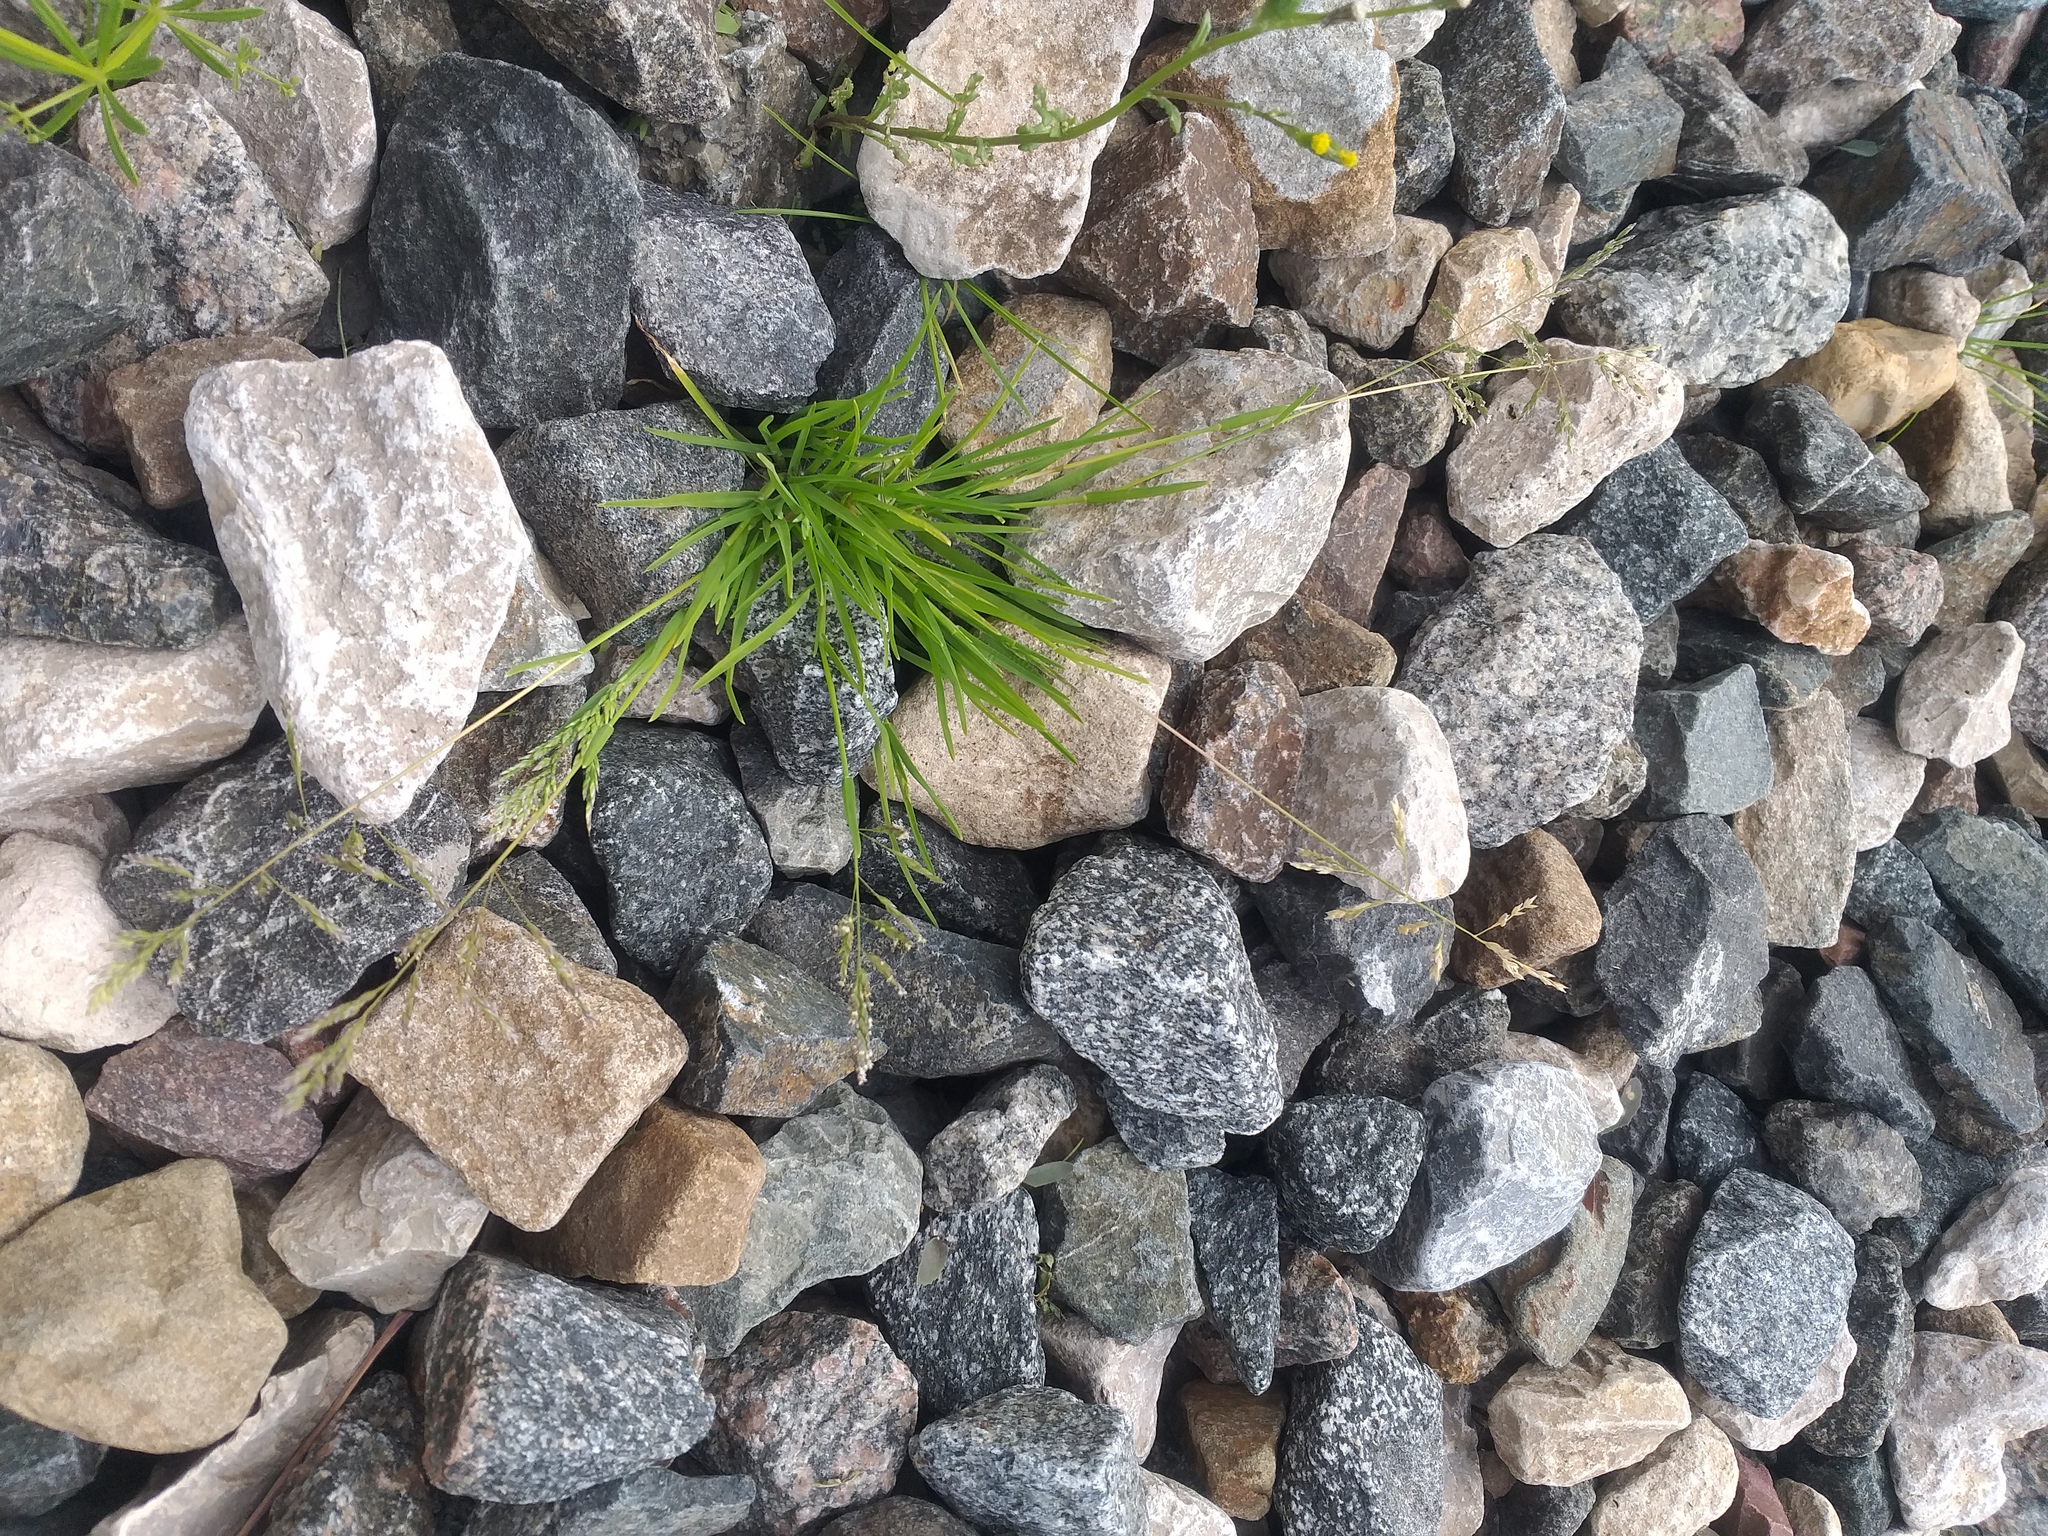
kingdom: Plantae
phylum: Tracheophyta
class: Liliopsida
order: Poales
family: Poaceae
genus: Poa
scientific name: Poa annua
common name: Annual bluegrass
